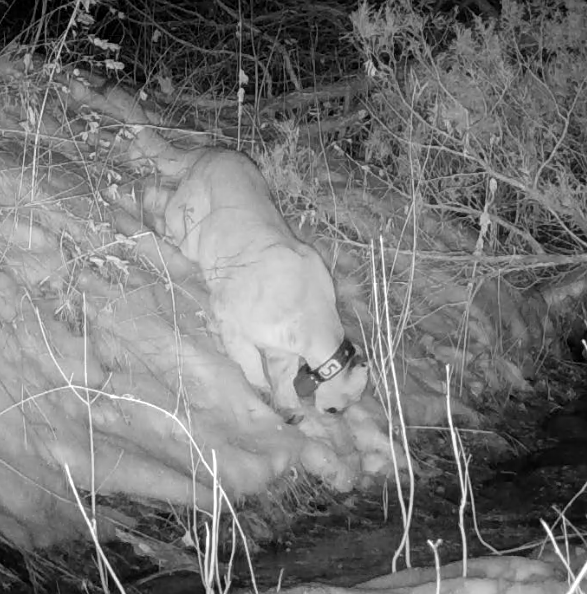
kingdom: Animalia
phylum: Chordata
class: Mammalia
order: Carnivora
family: Felidae
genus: Puma
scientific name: Puma concolor
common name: Puma
